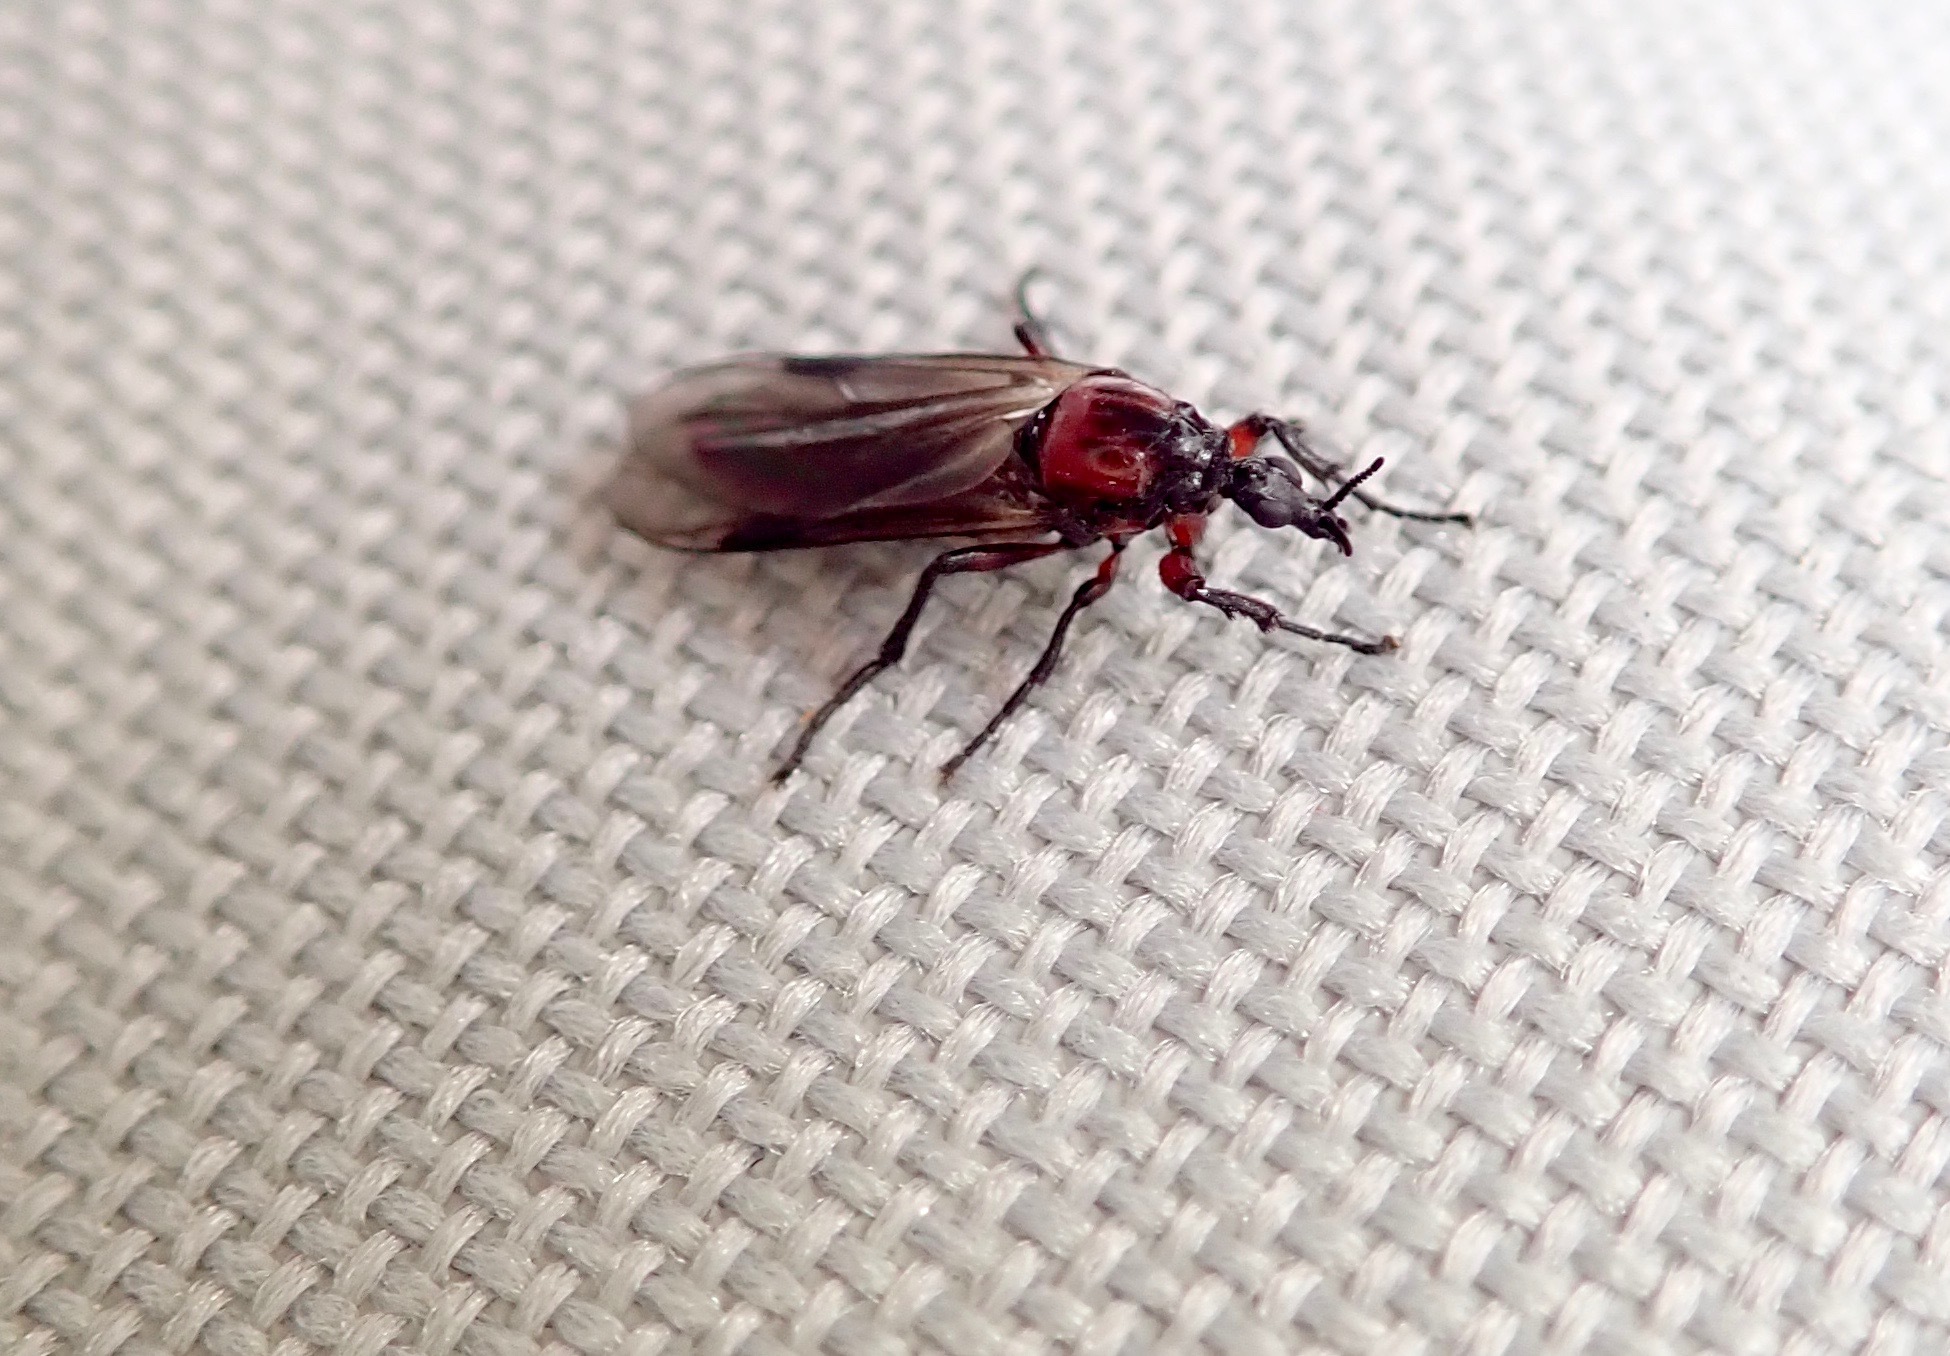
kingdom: Animalia
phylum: Arthropoda
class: Insecta
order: Diptera
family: Bibionidae
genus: Dilophus
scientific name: Dilophus nigrostigma
